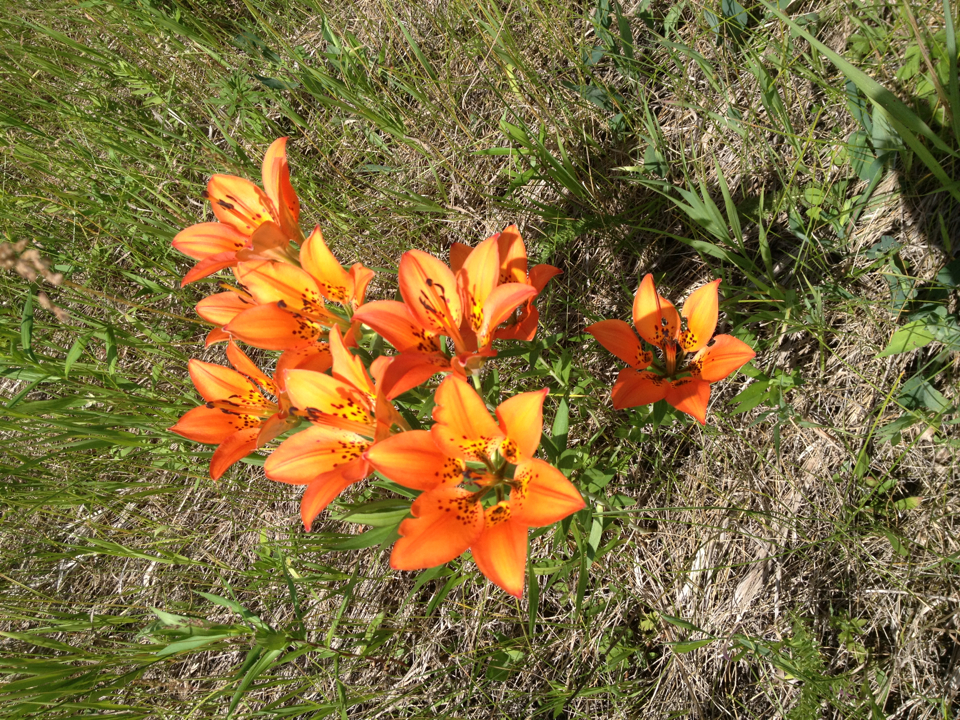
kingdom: Plantae
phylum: Tracheophyta
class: Liliopsida
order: Liliales
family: Liliaceae
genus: Lilium
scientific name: Lilium philadelphicum
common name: Red lily
